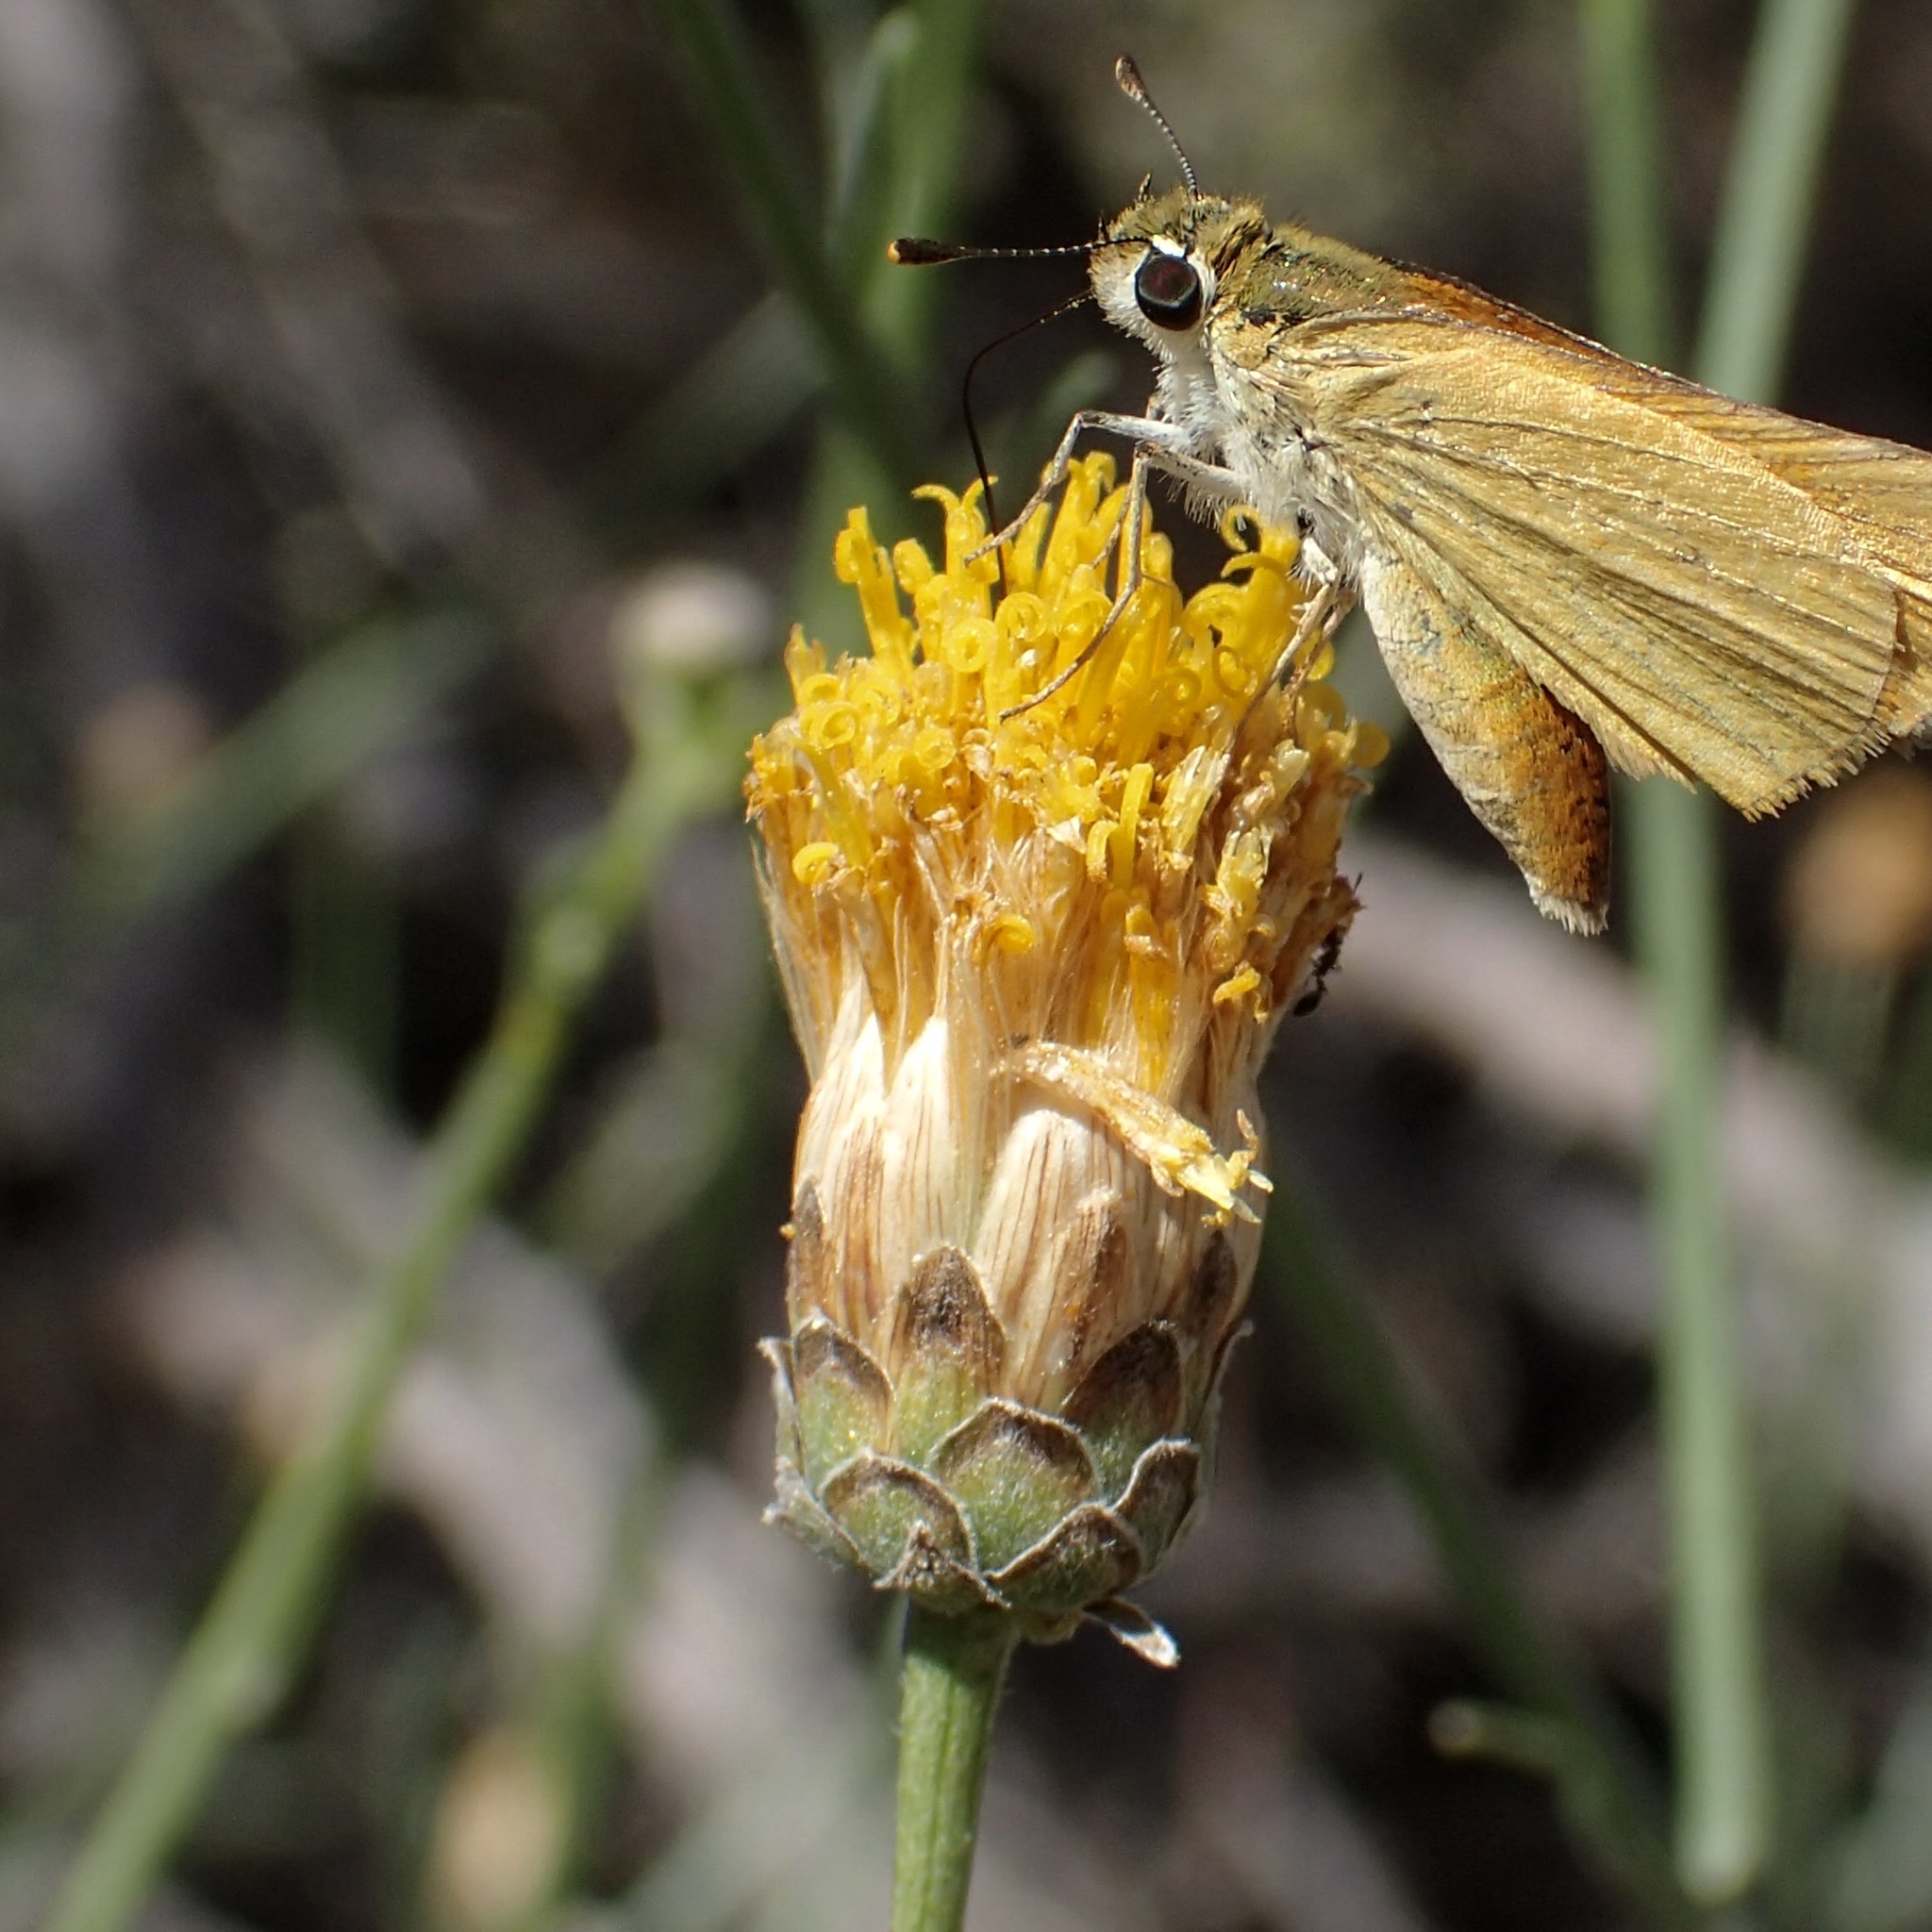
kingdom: Plantae
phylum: Tracheophyta
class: Magnoliopsida
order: Asterales
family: Asteraceae
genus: Bebbia
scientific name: Bebbia juncea
